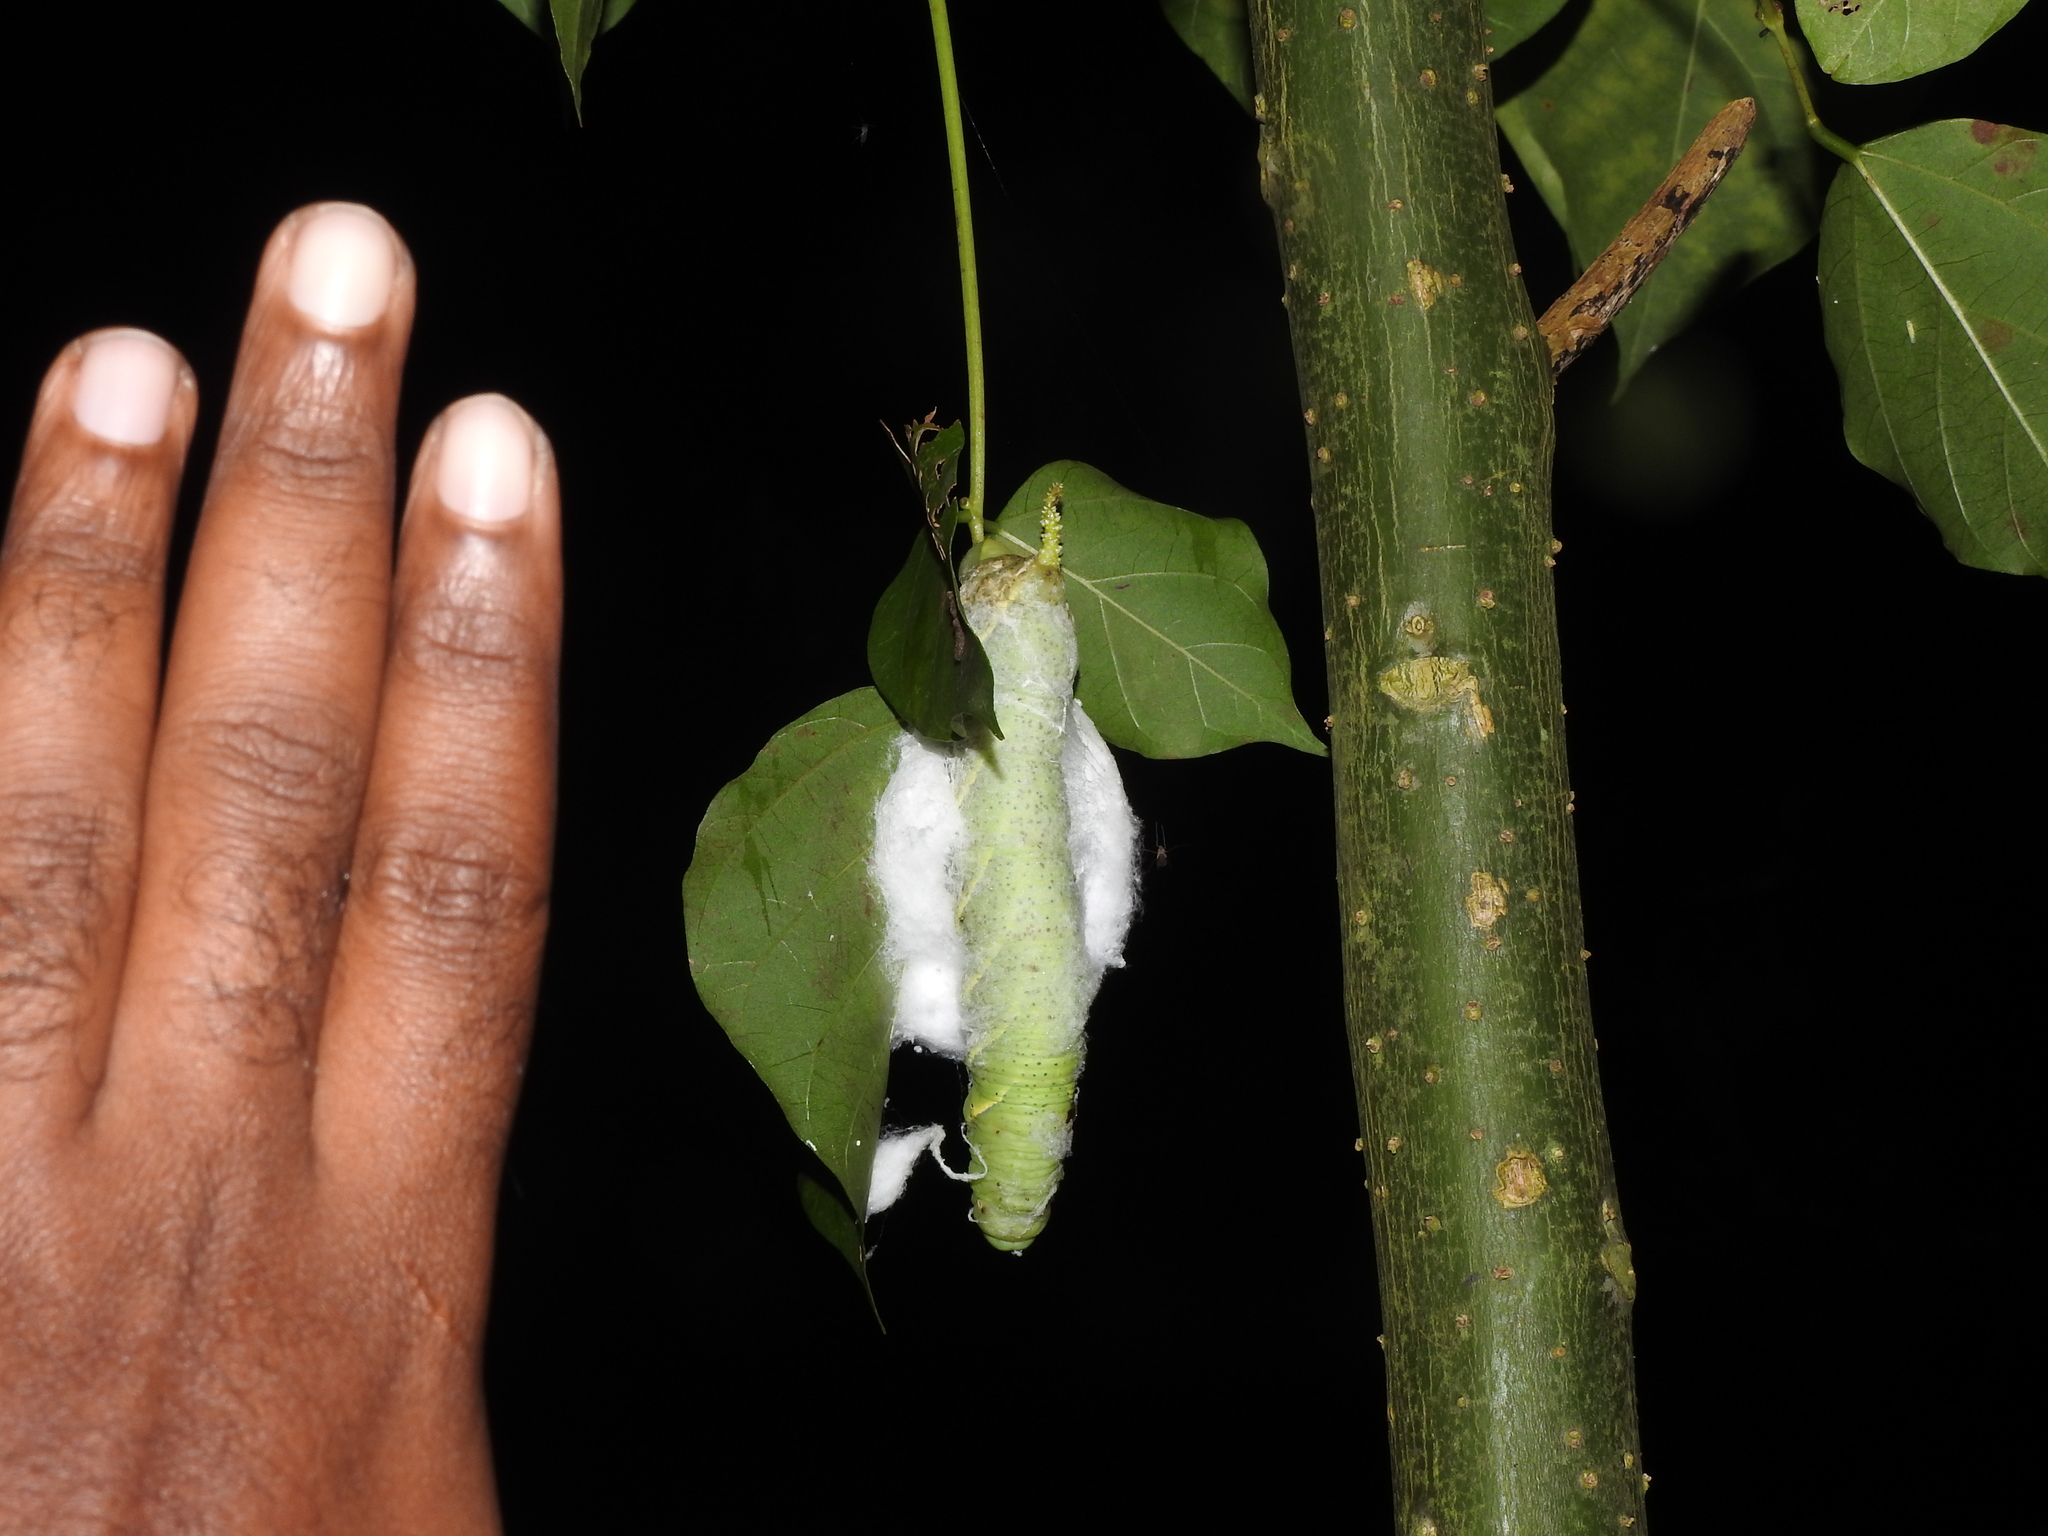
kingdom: Animalia
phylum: Arthropoda
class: Insecta
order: Lepidoptera
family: Sphingidae
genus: Acherontia
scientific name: Acherontia lachesis
